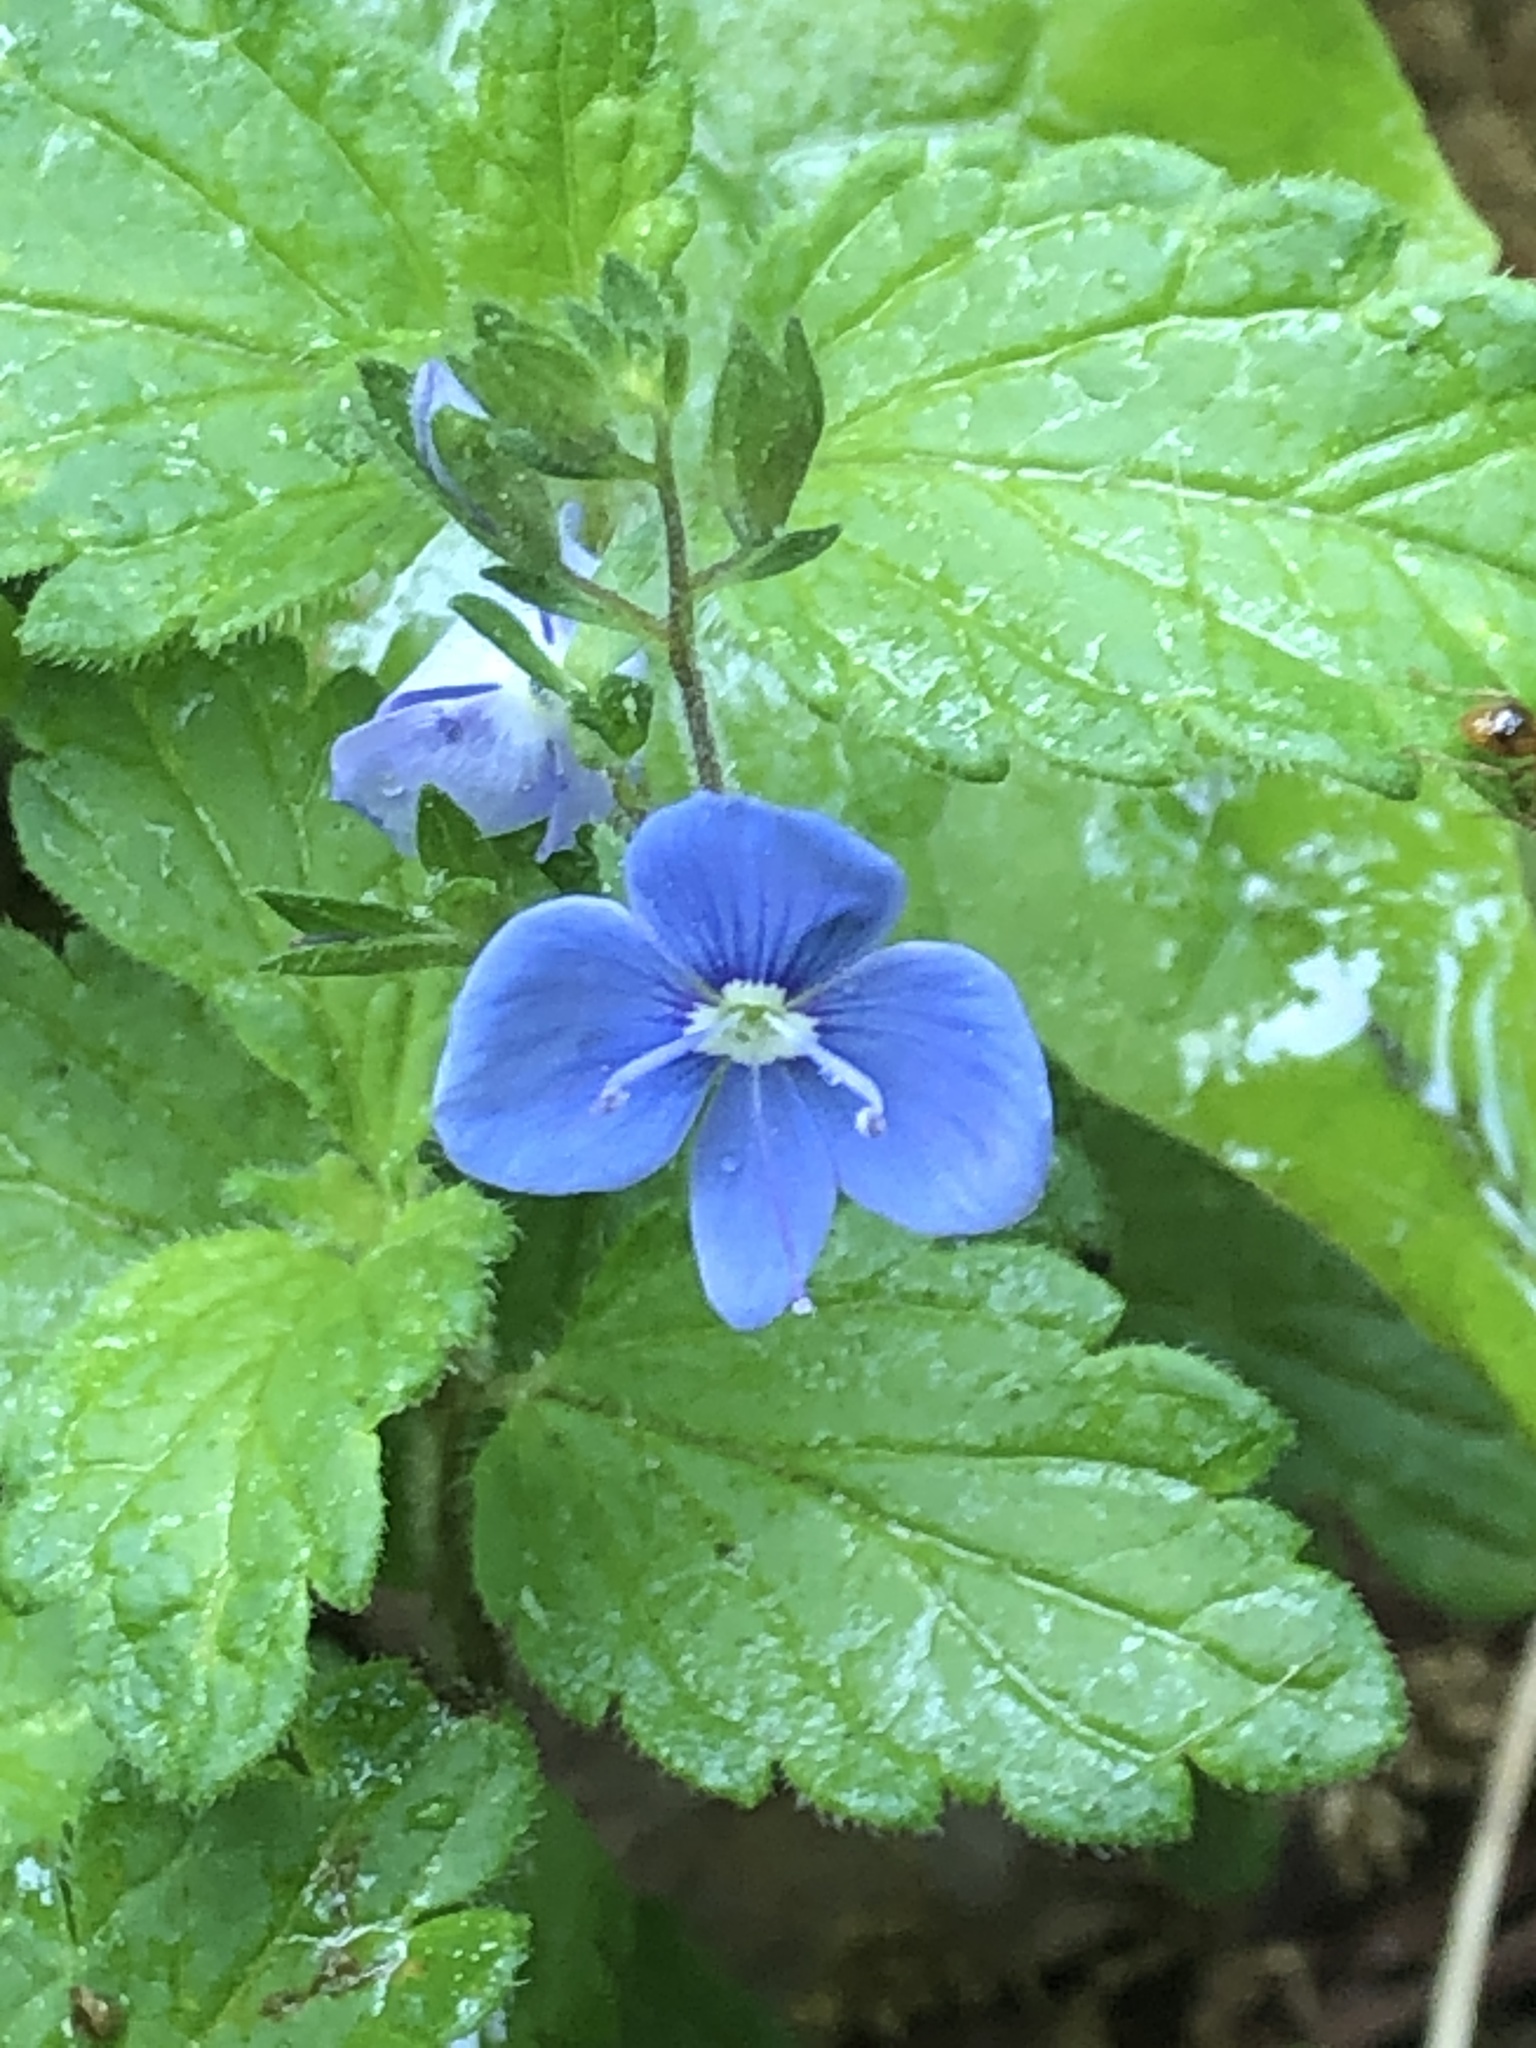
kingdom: Plantae
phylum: Tracheophyta
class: Magnoliopsida
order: Lamiales
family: Plantaginaceae
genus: Veronica
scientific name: Veronica chamaedrys
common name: Germander speedwell
